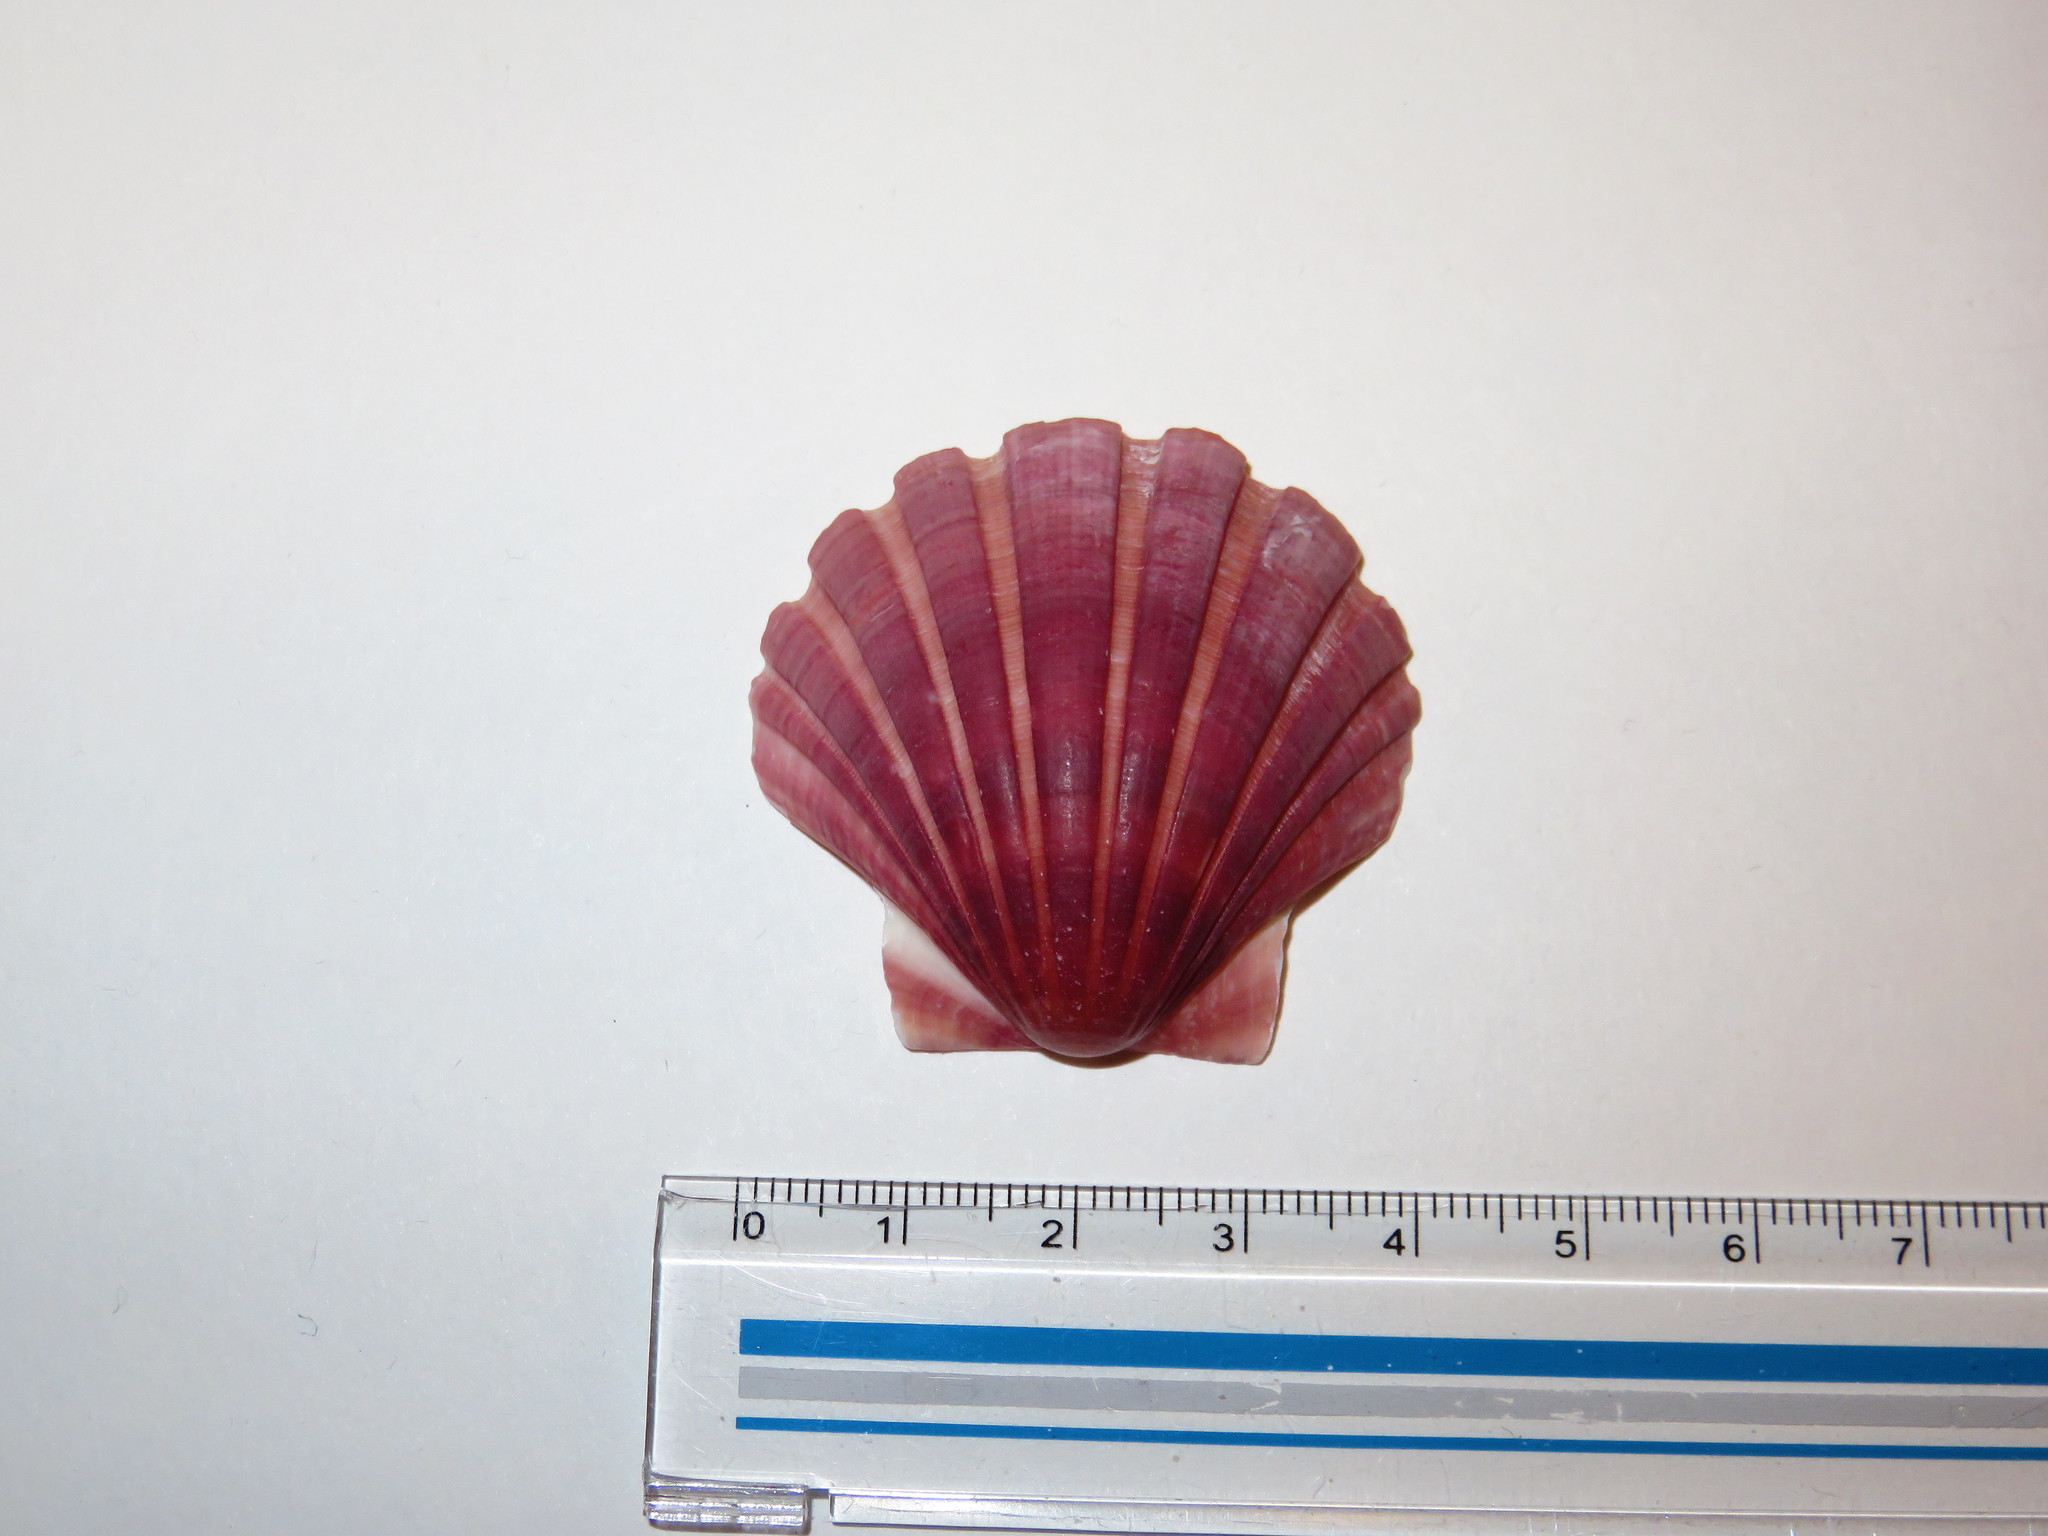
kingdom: Animalia
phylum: Mollusca
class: Bivalvia
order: Pectinida
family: Pectinidae
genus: Pecten
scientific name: Pecten albicans
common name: Japanese baking scallop
